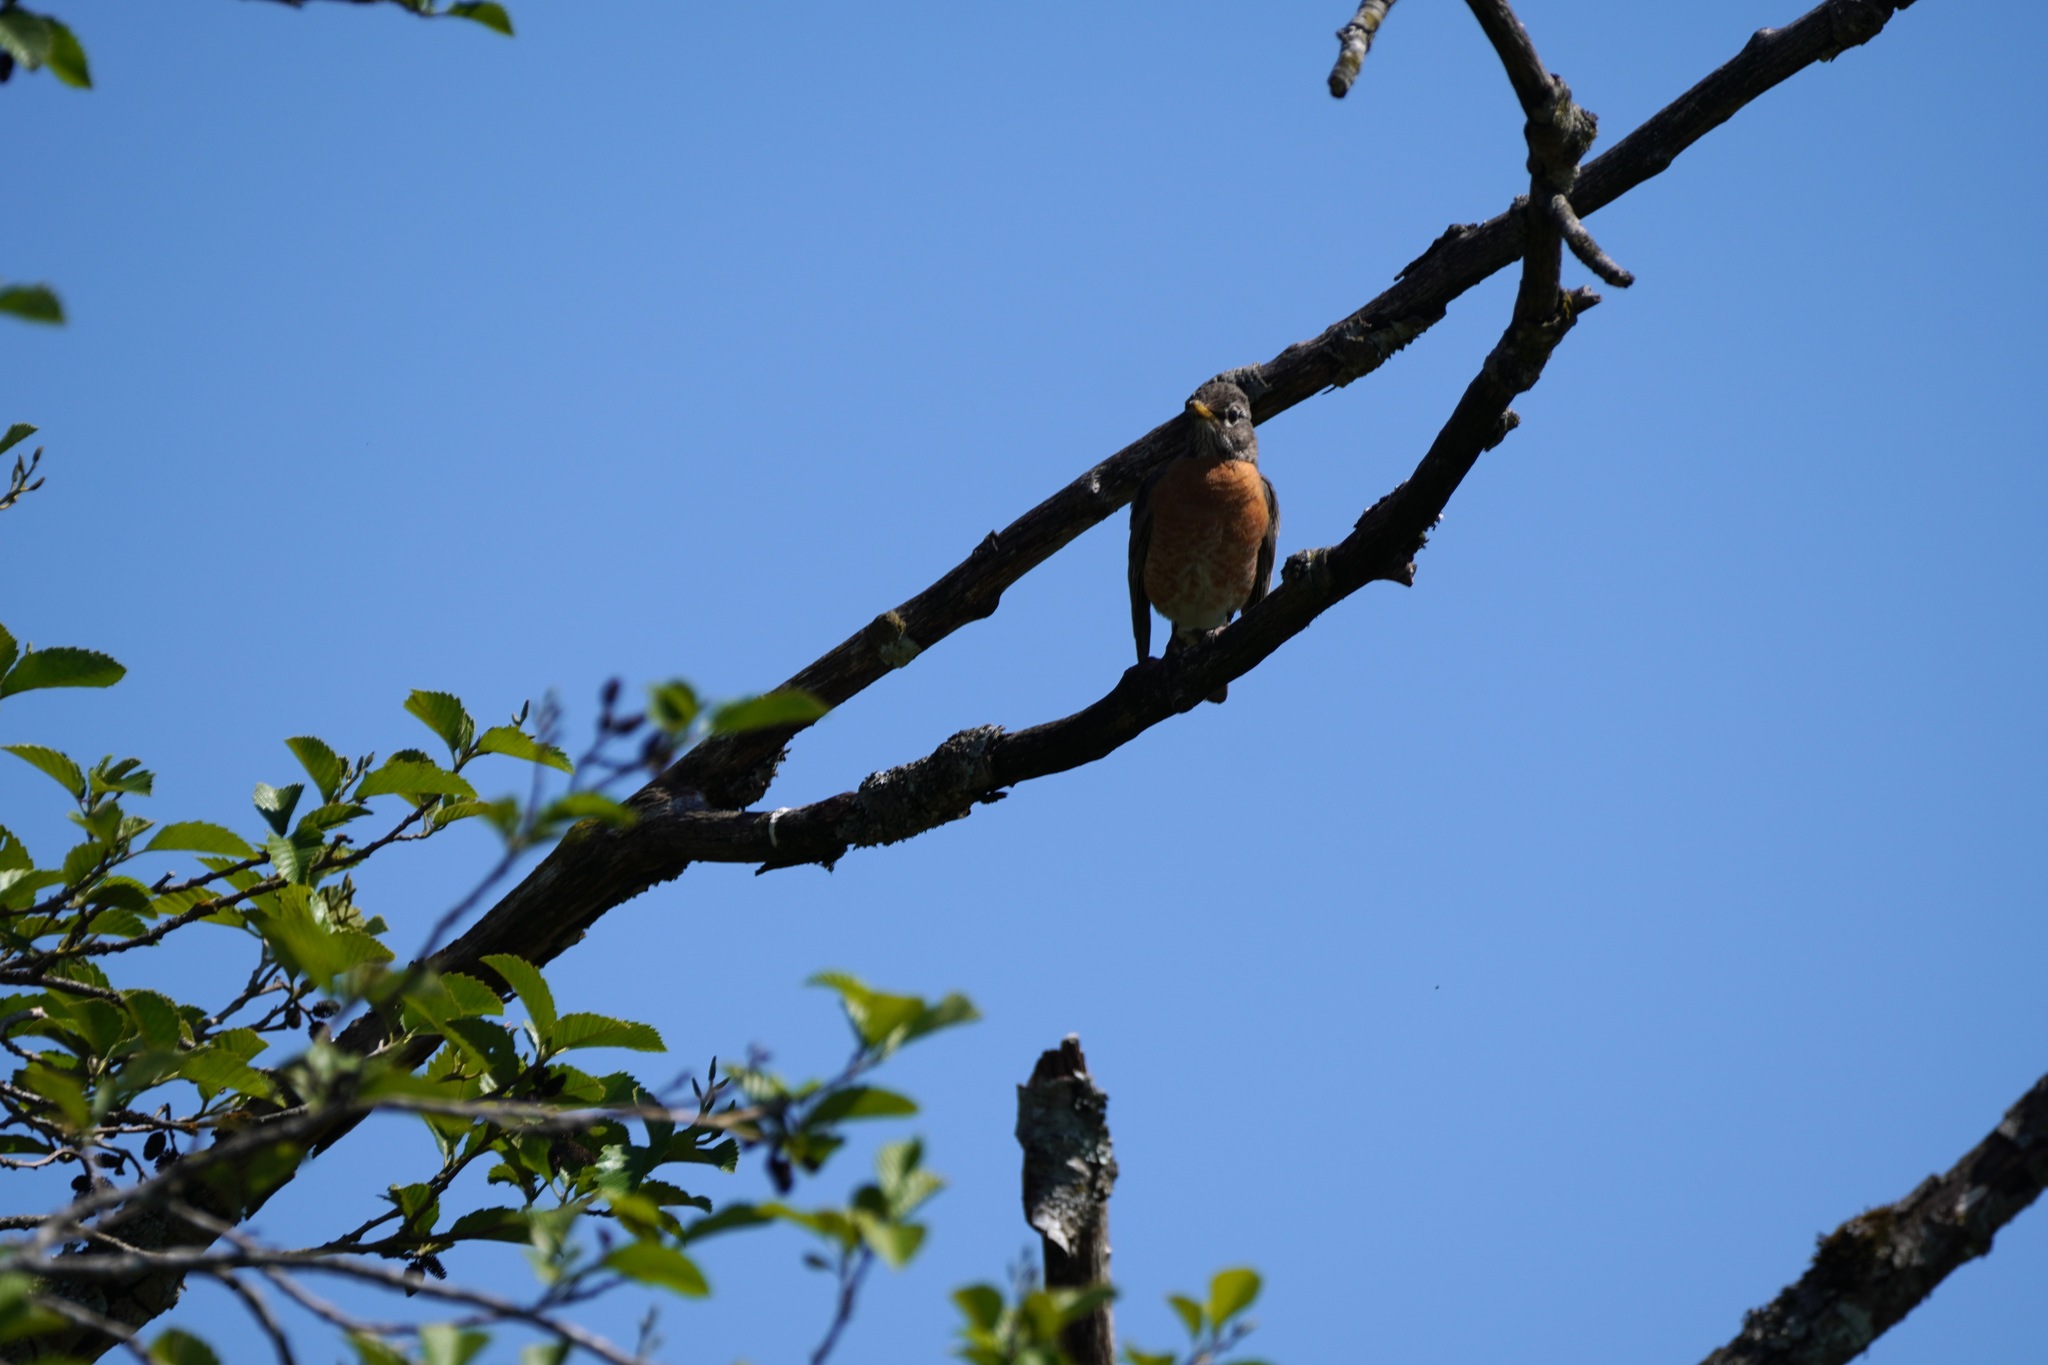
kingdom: Animalia
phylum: Chordata
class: Aves
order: Passeriformes
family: Turdidae
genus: Turdus
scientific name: Turdus migratorius
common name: American robin
